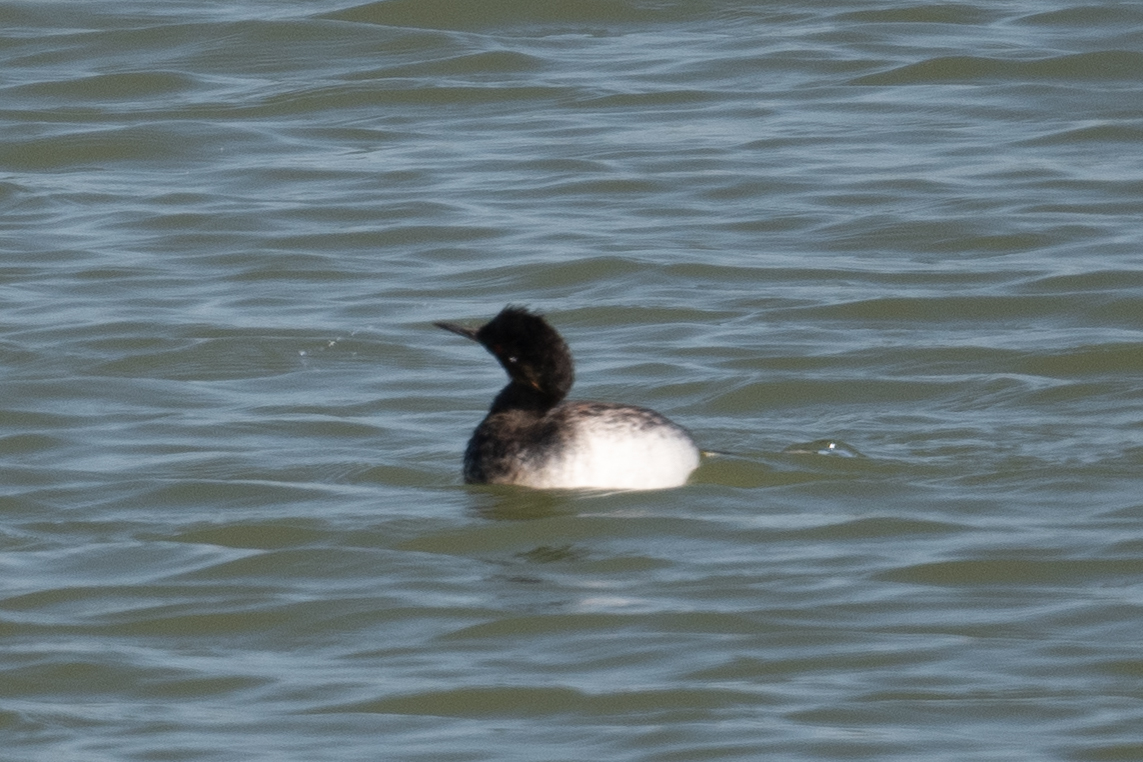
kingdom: Animalia
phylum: Chordata
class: Aves
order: Podicipediformes
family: Podicipedidae
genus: Podiceps
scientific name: Podiceps nigricollis
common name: Black-necked grebe
